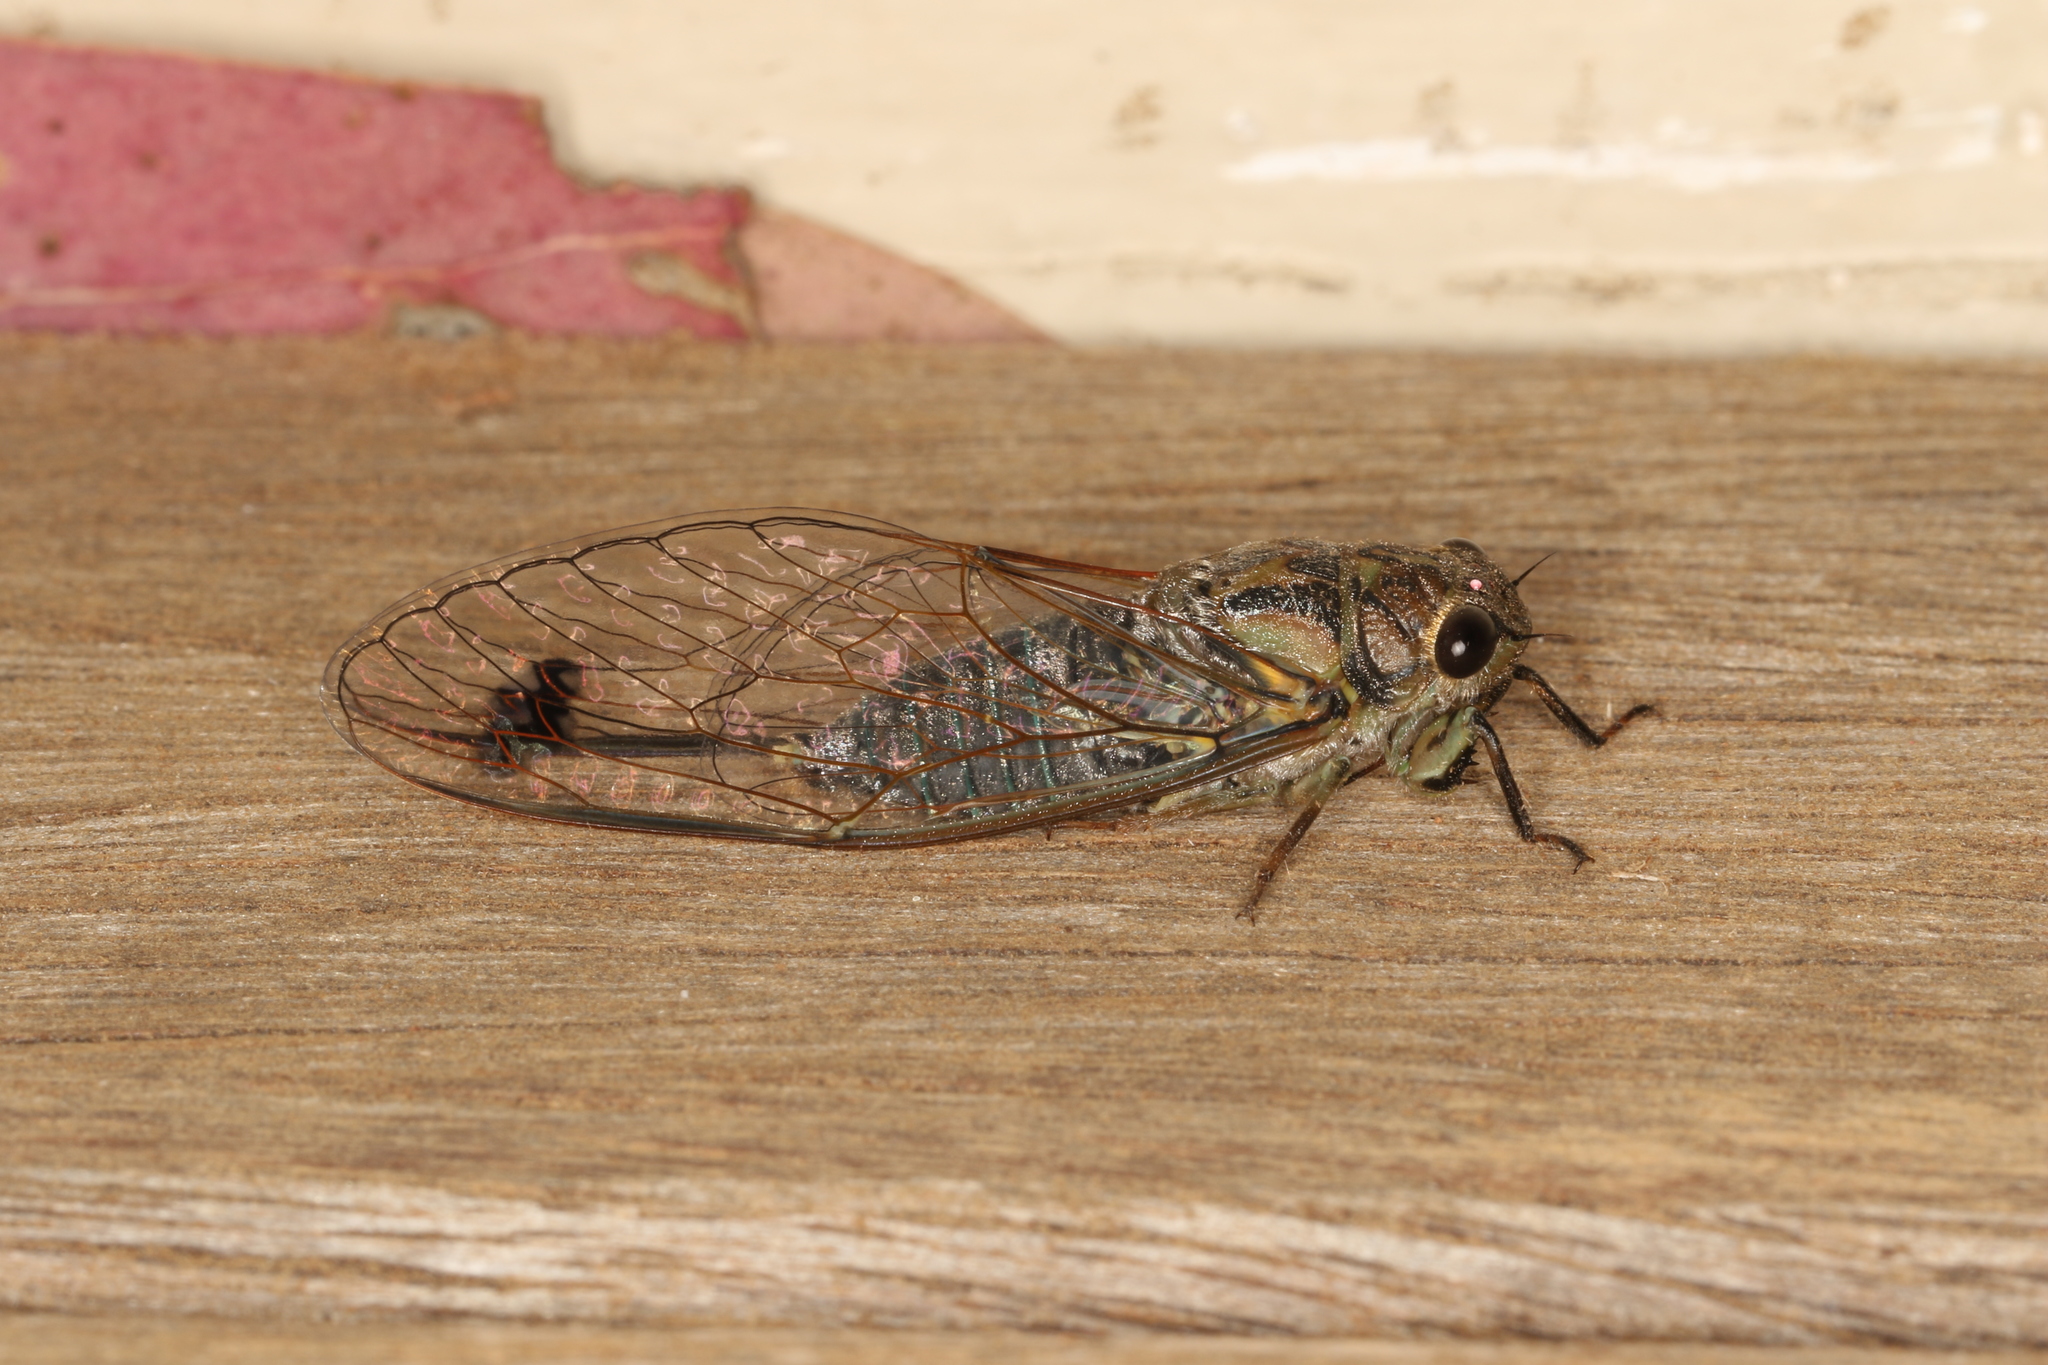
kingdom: Animalia
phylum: Arthropoda
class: Insecta
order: Hemiptera
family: Cicadidae
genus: Galanga
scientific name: Galanga labeculata
